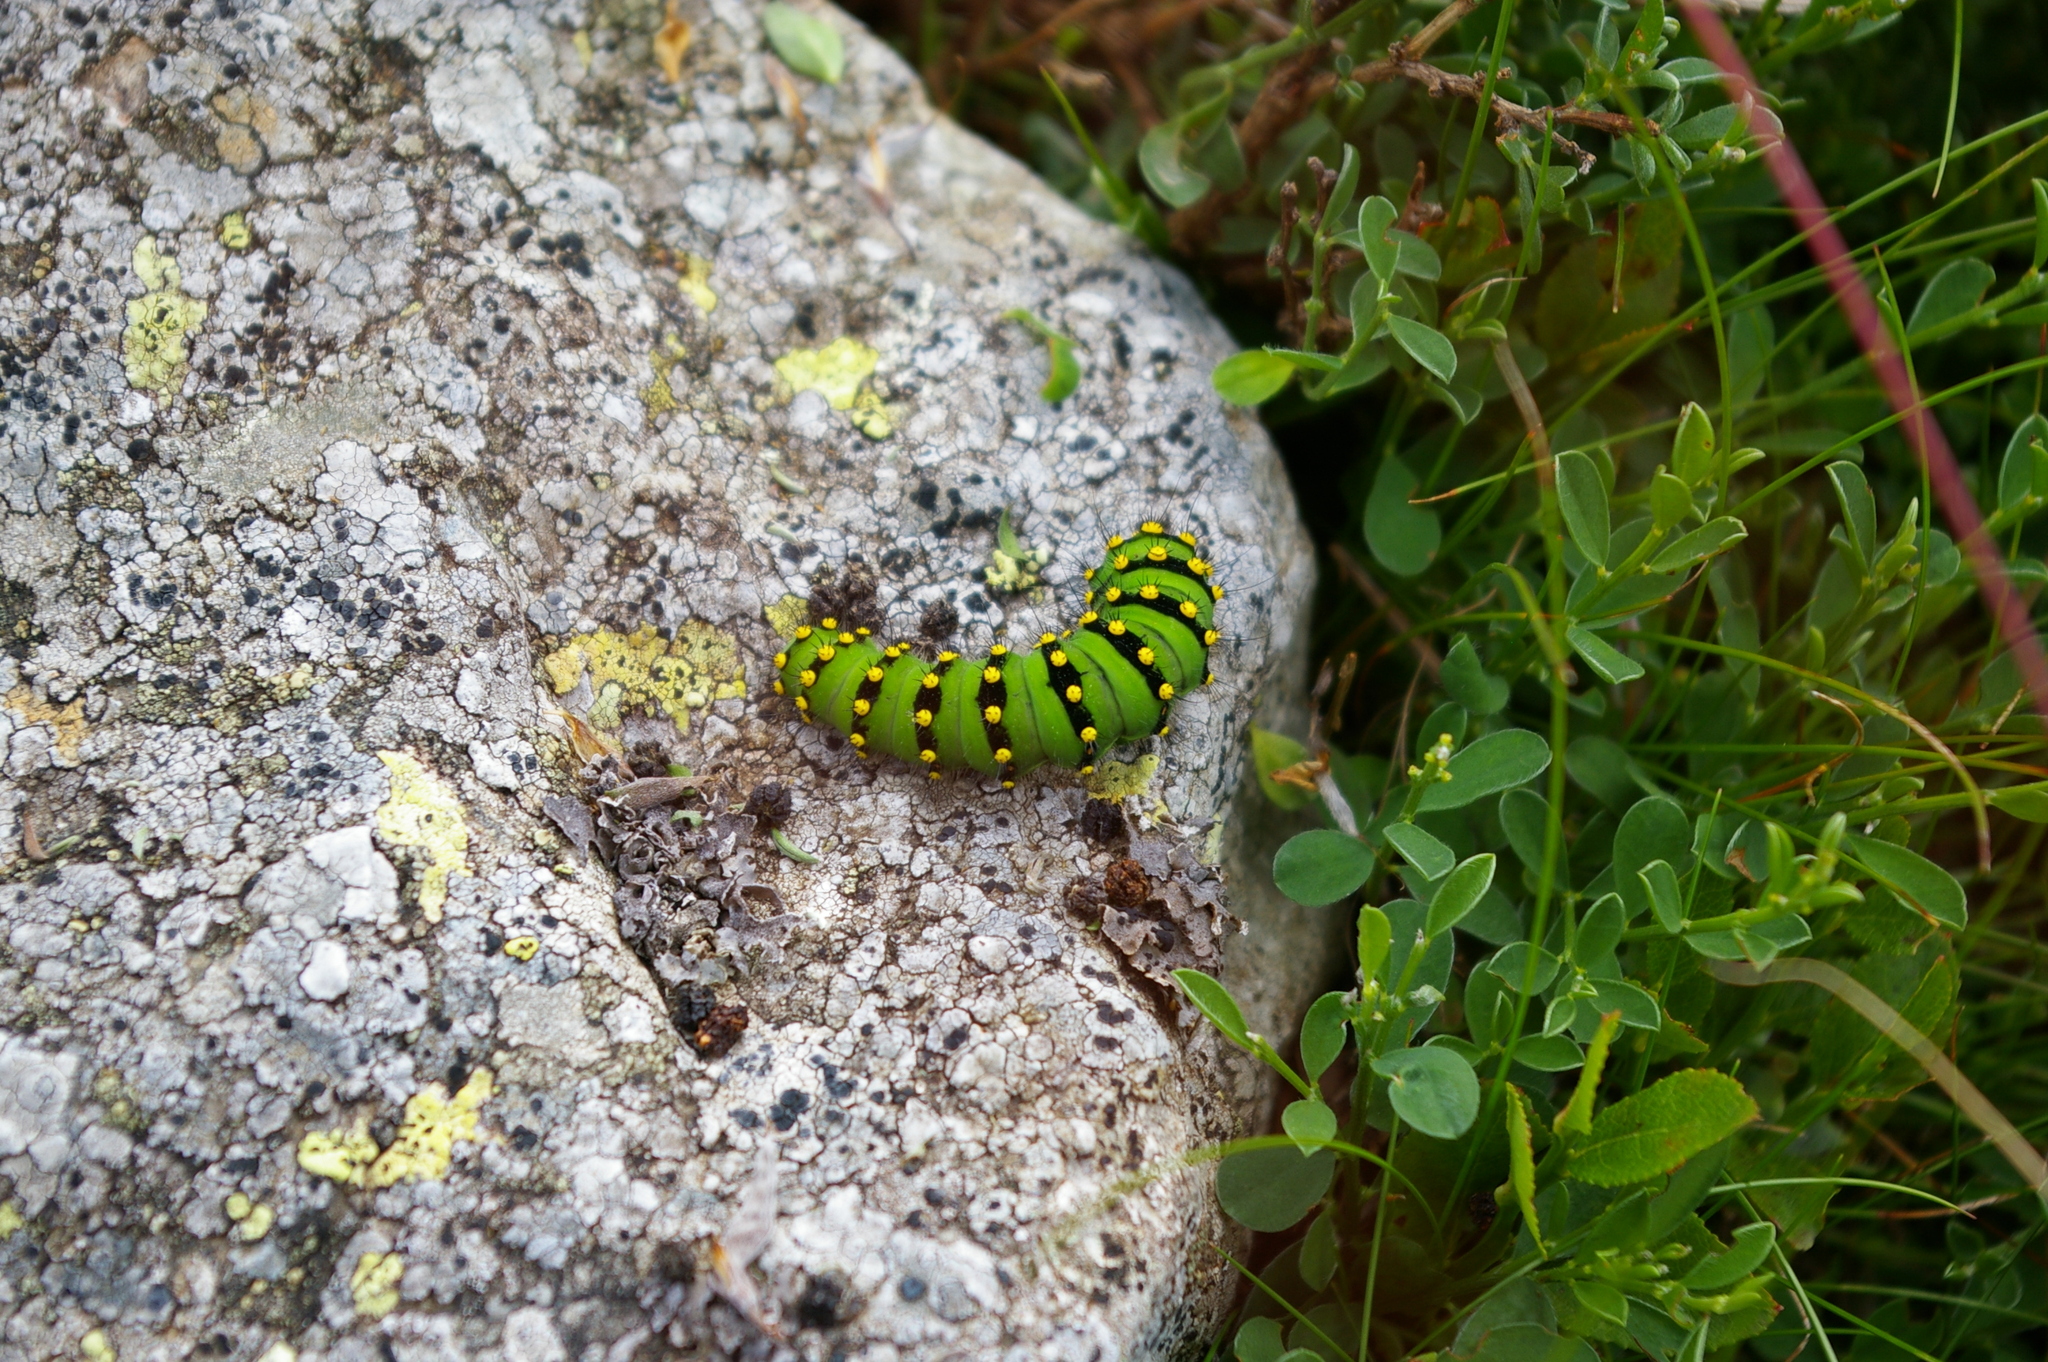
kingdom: Animalia
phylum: Arthropoda
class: Insecta
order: Lepidoptera
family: Saturniidae
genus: Saturnia
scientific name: Saturnia pavonia
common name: Emperor moth
